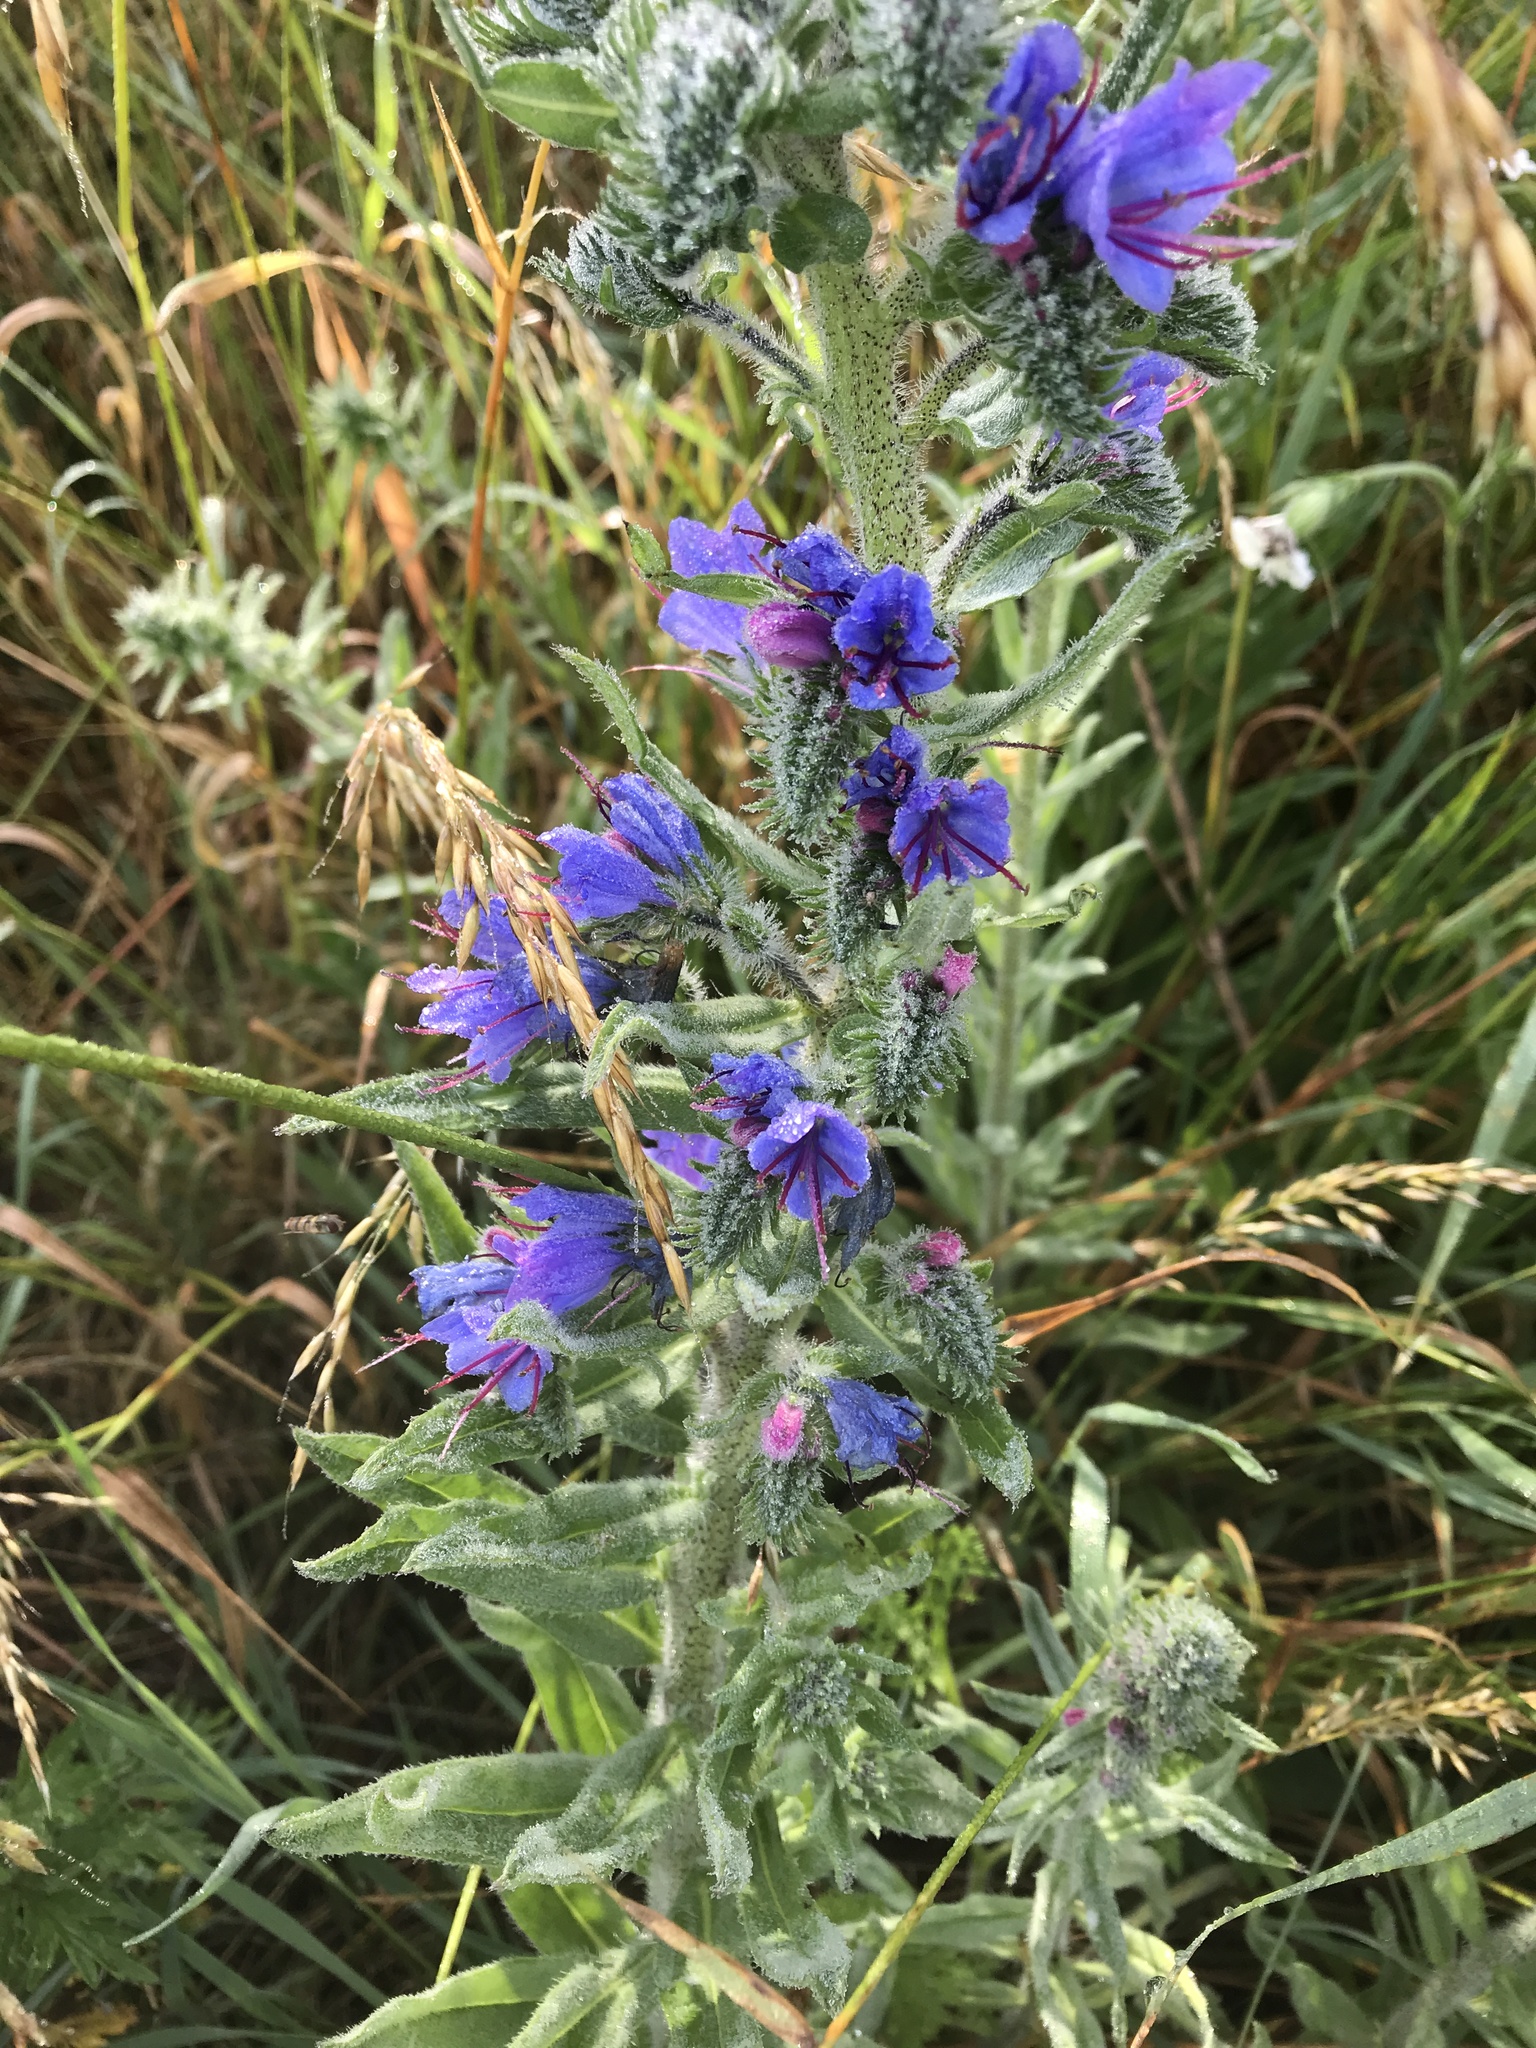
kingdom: Plantae
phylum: Tracheophyta
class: Magnoliopsida
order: Boraginales
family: Boraginaceae
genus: Echium
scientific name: Echium vulgare
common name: Common viper's bugloss
